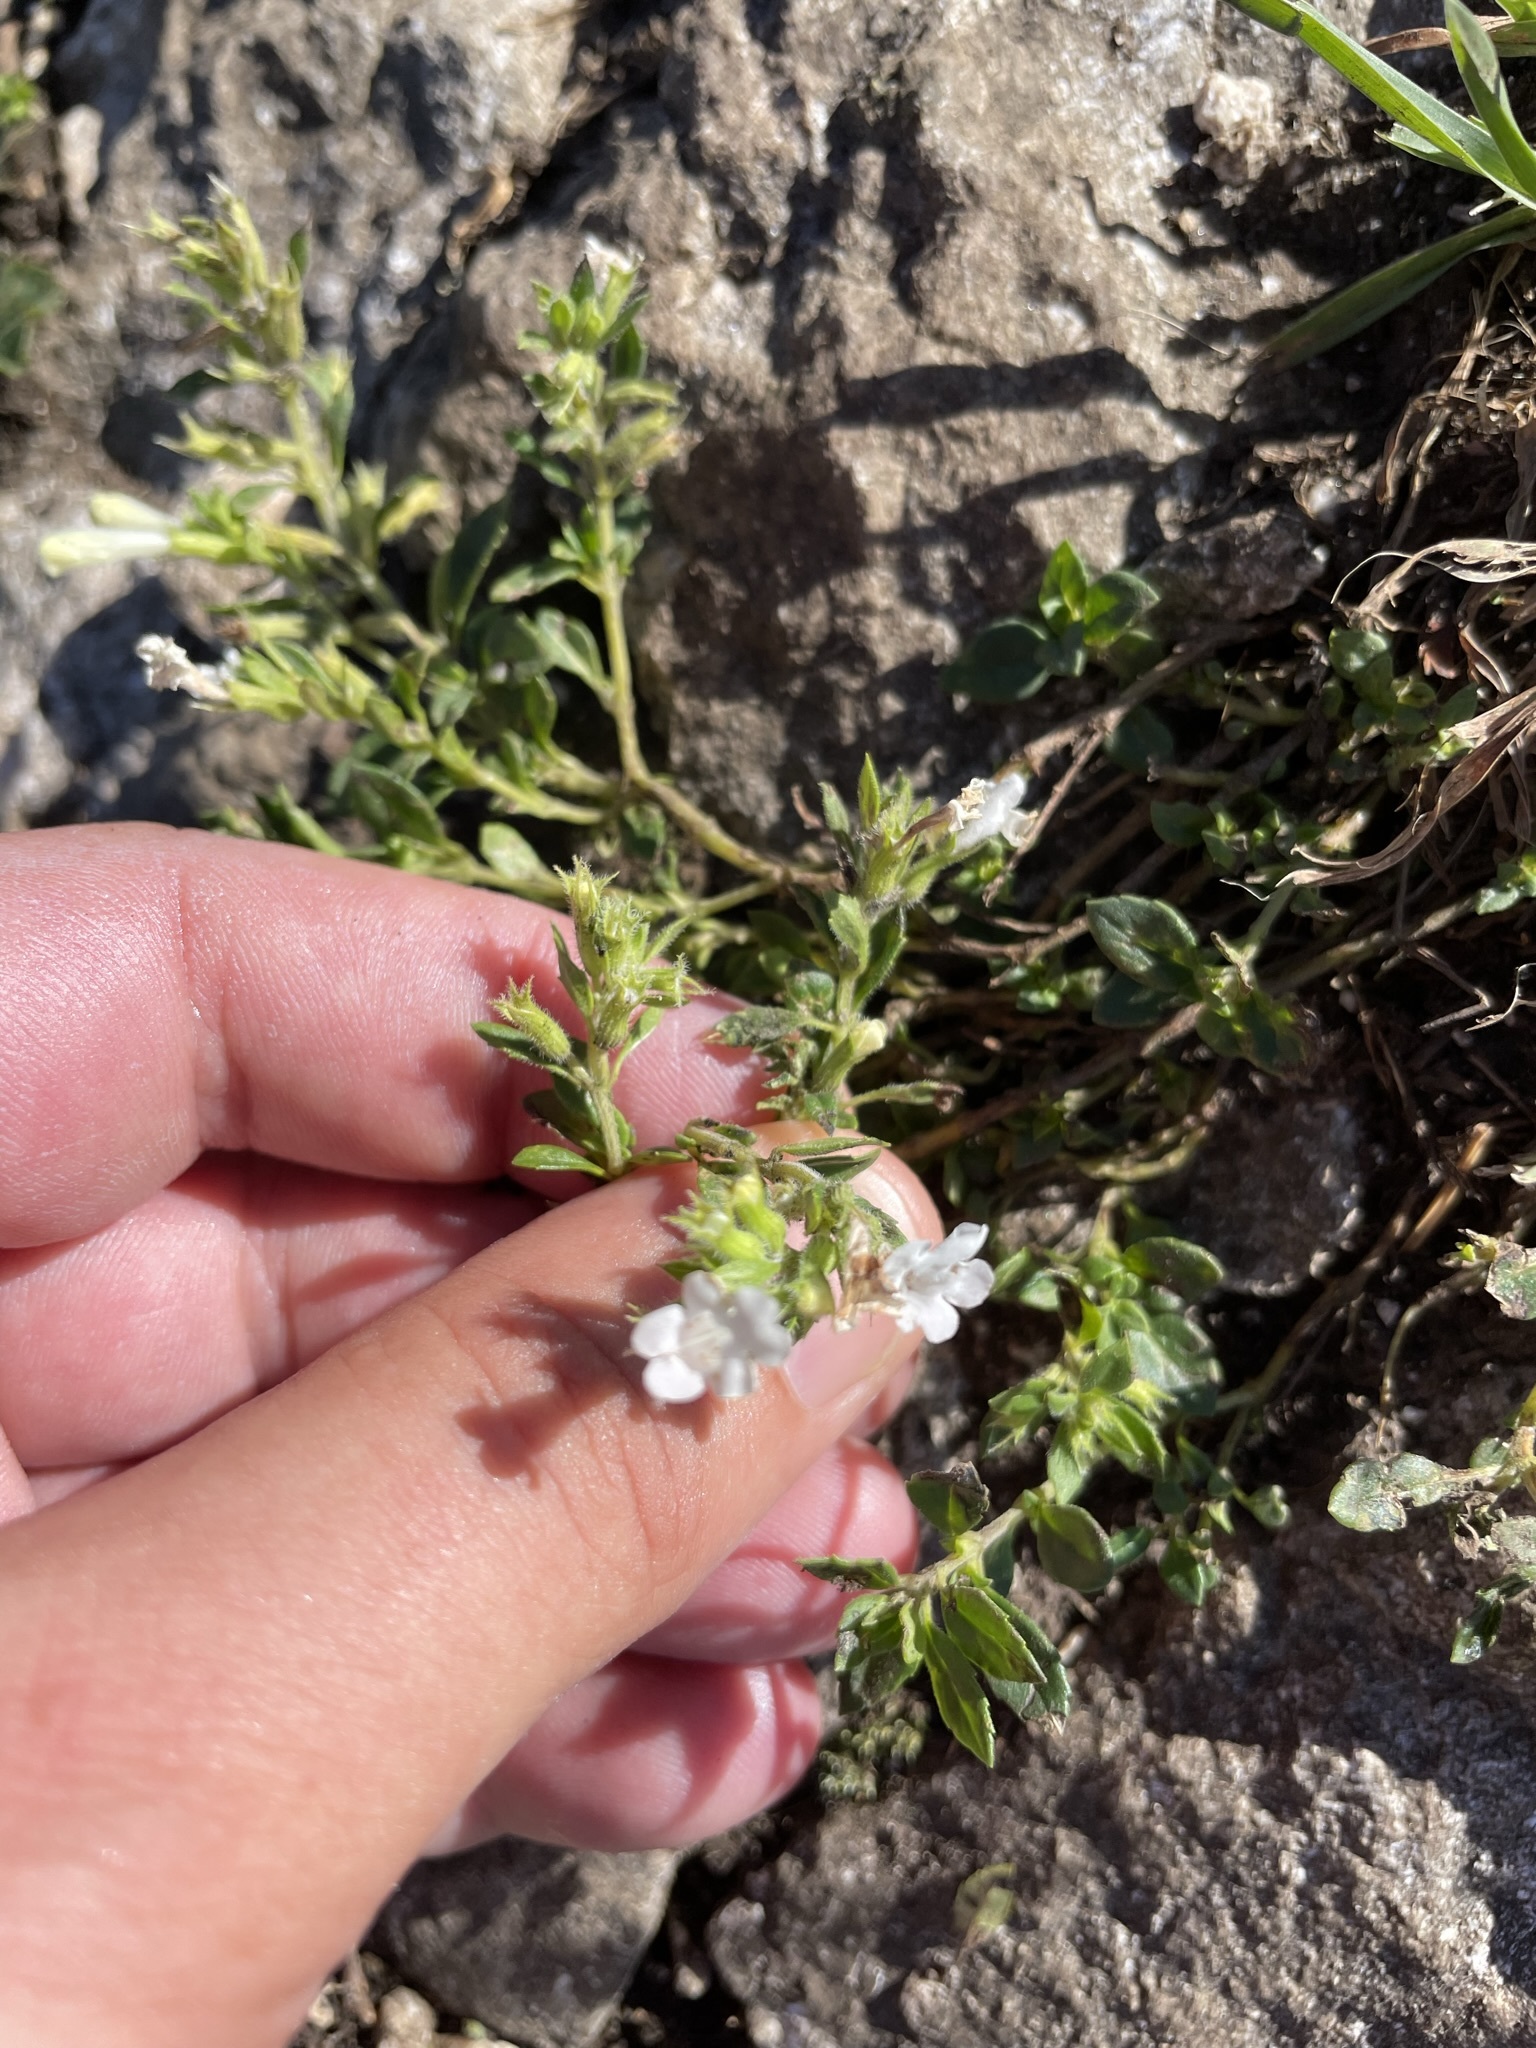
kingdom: Plantae
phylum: Tracheophyta
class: Magnoliopsida
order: Lamiales
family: Lamiaceae
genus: Clinopodium
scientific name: Clinopodium alpinum
